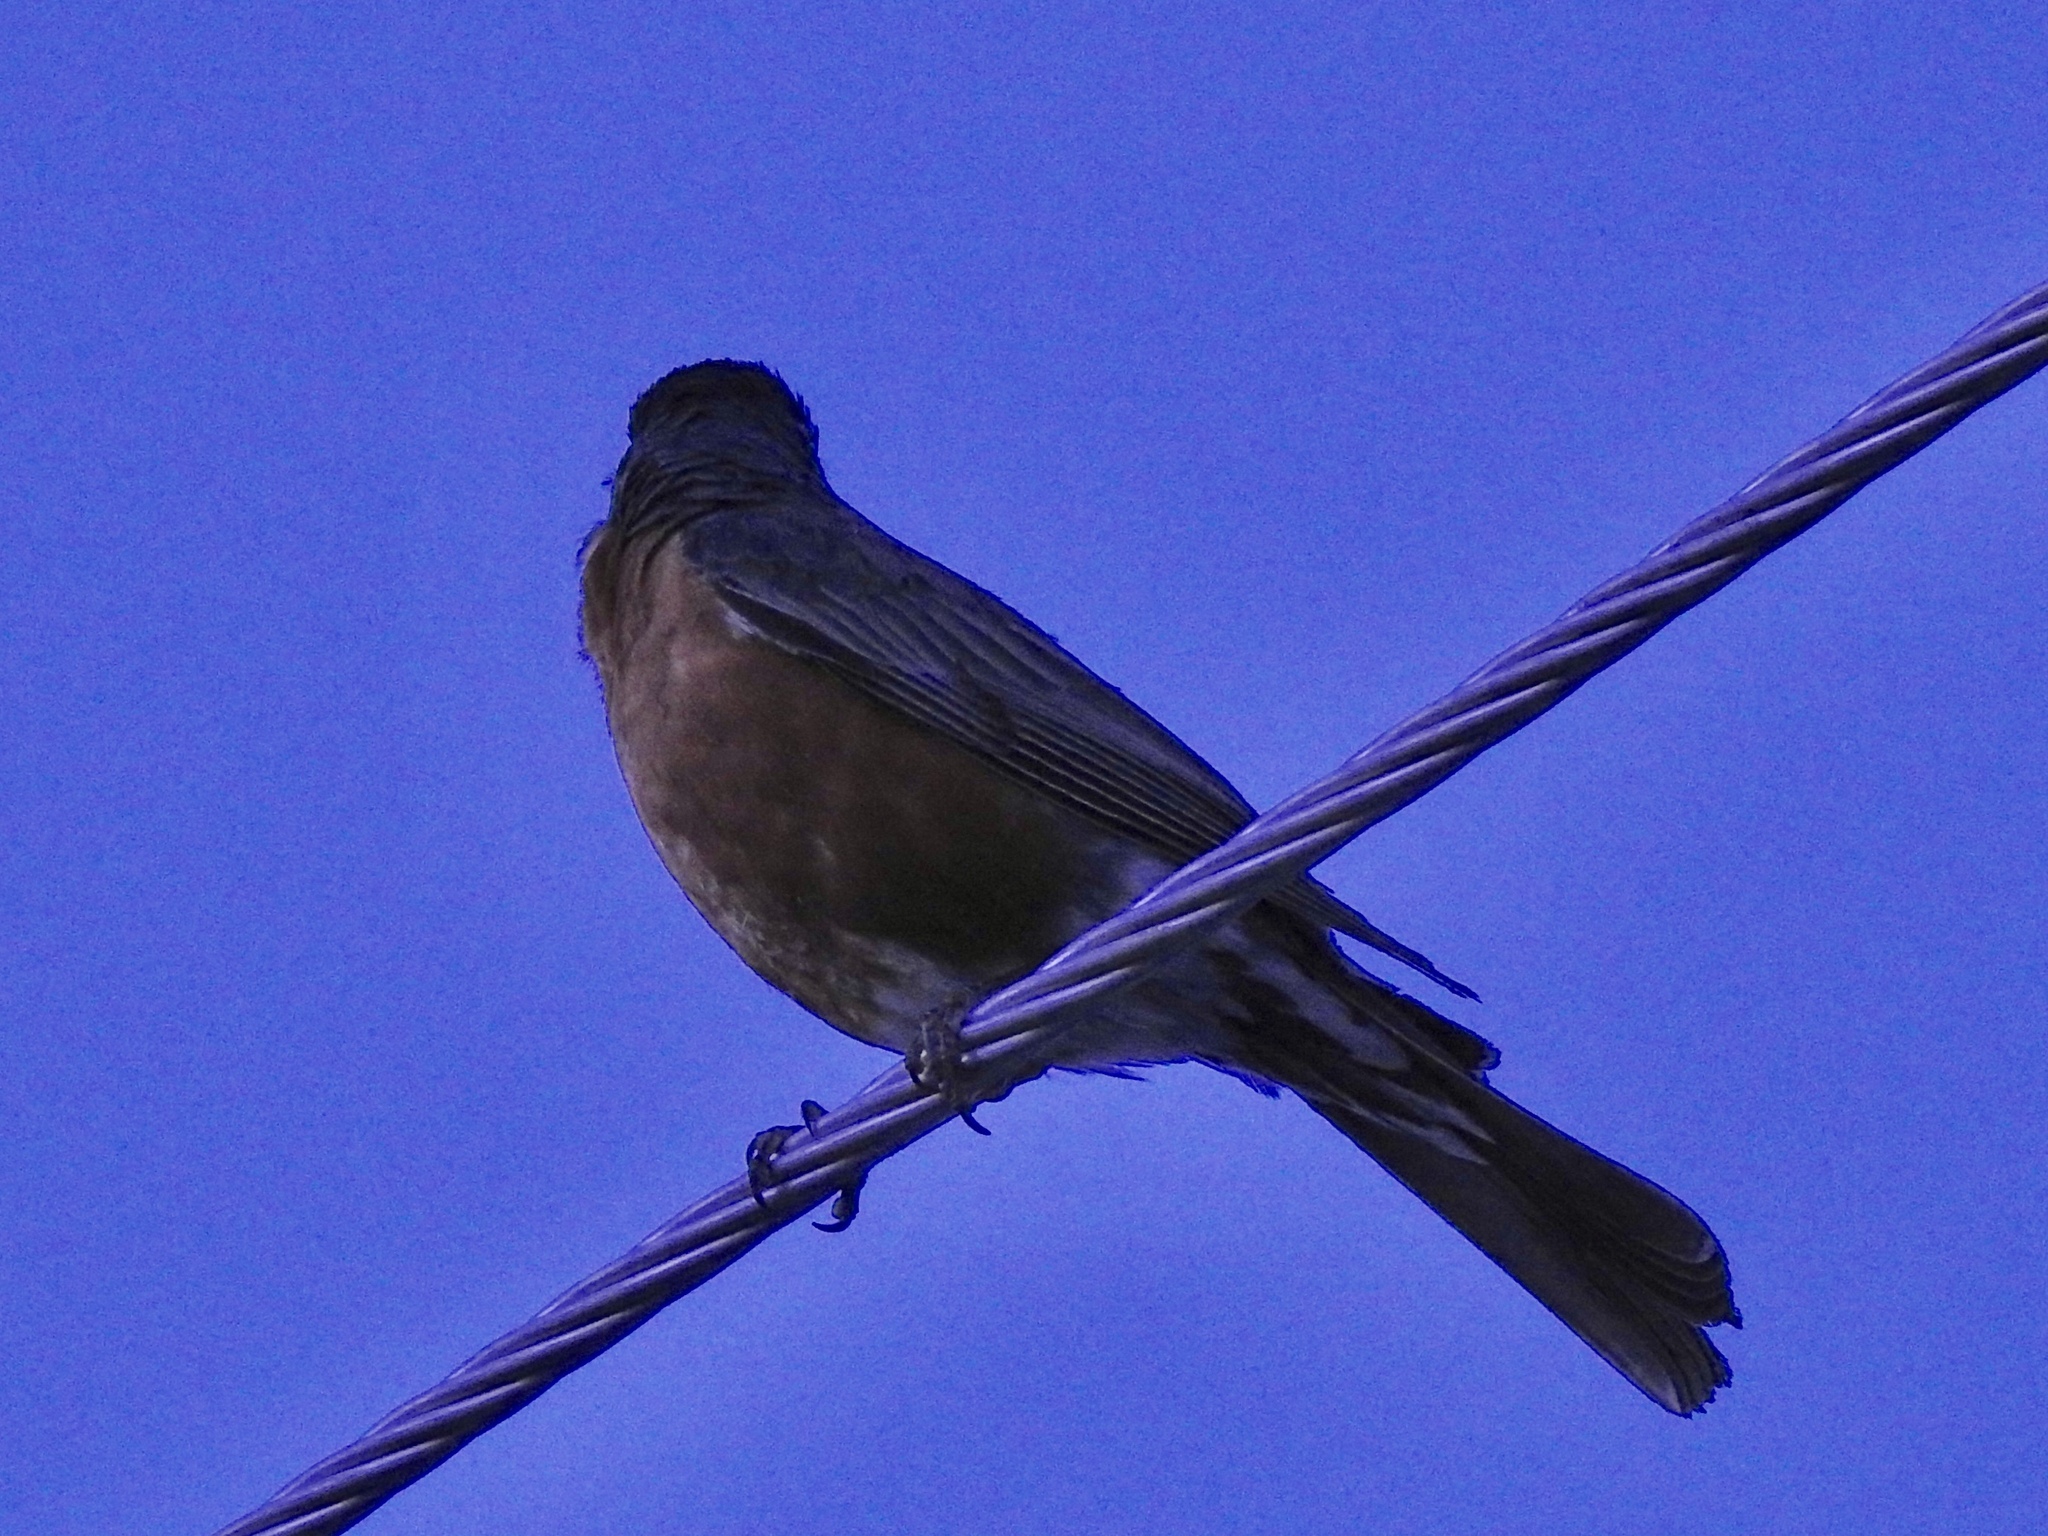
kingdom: Animalia
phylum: Chordata
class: Aves
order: Passeriformes
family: Turdidae
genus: Turdus
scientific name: Turdus migratorius
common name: American robin
